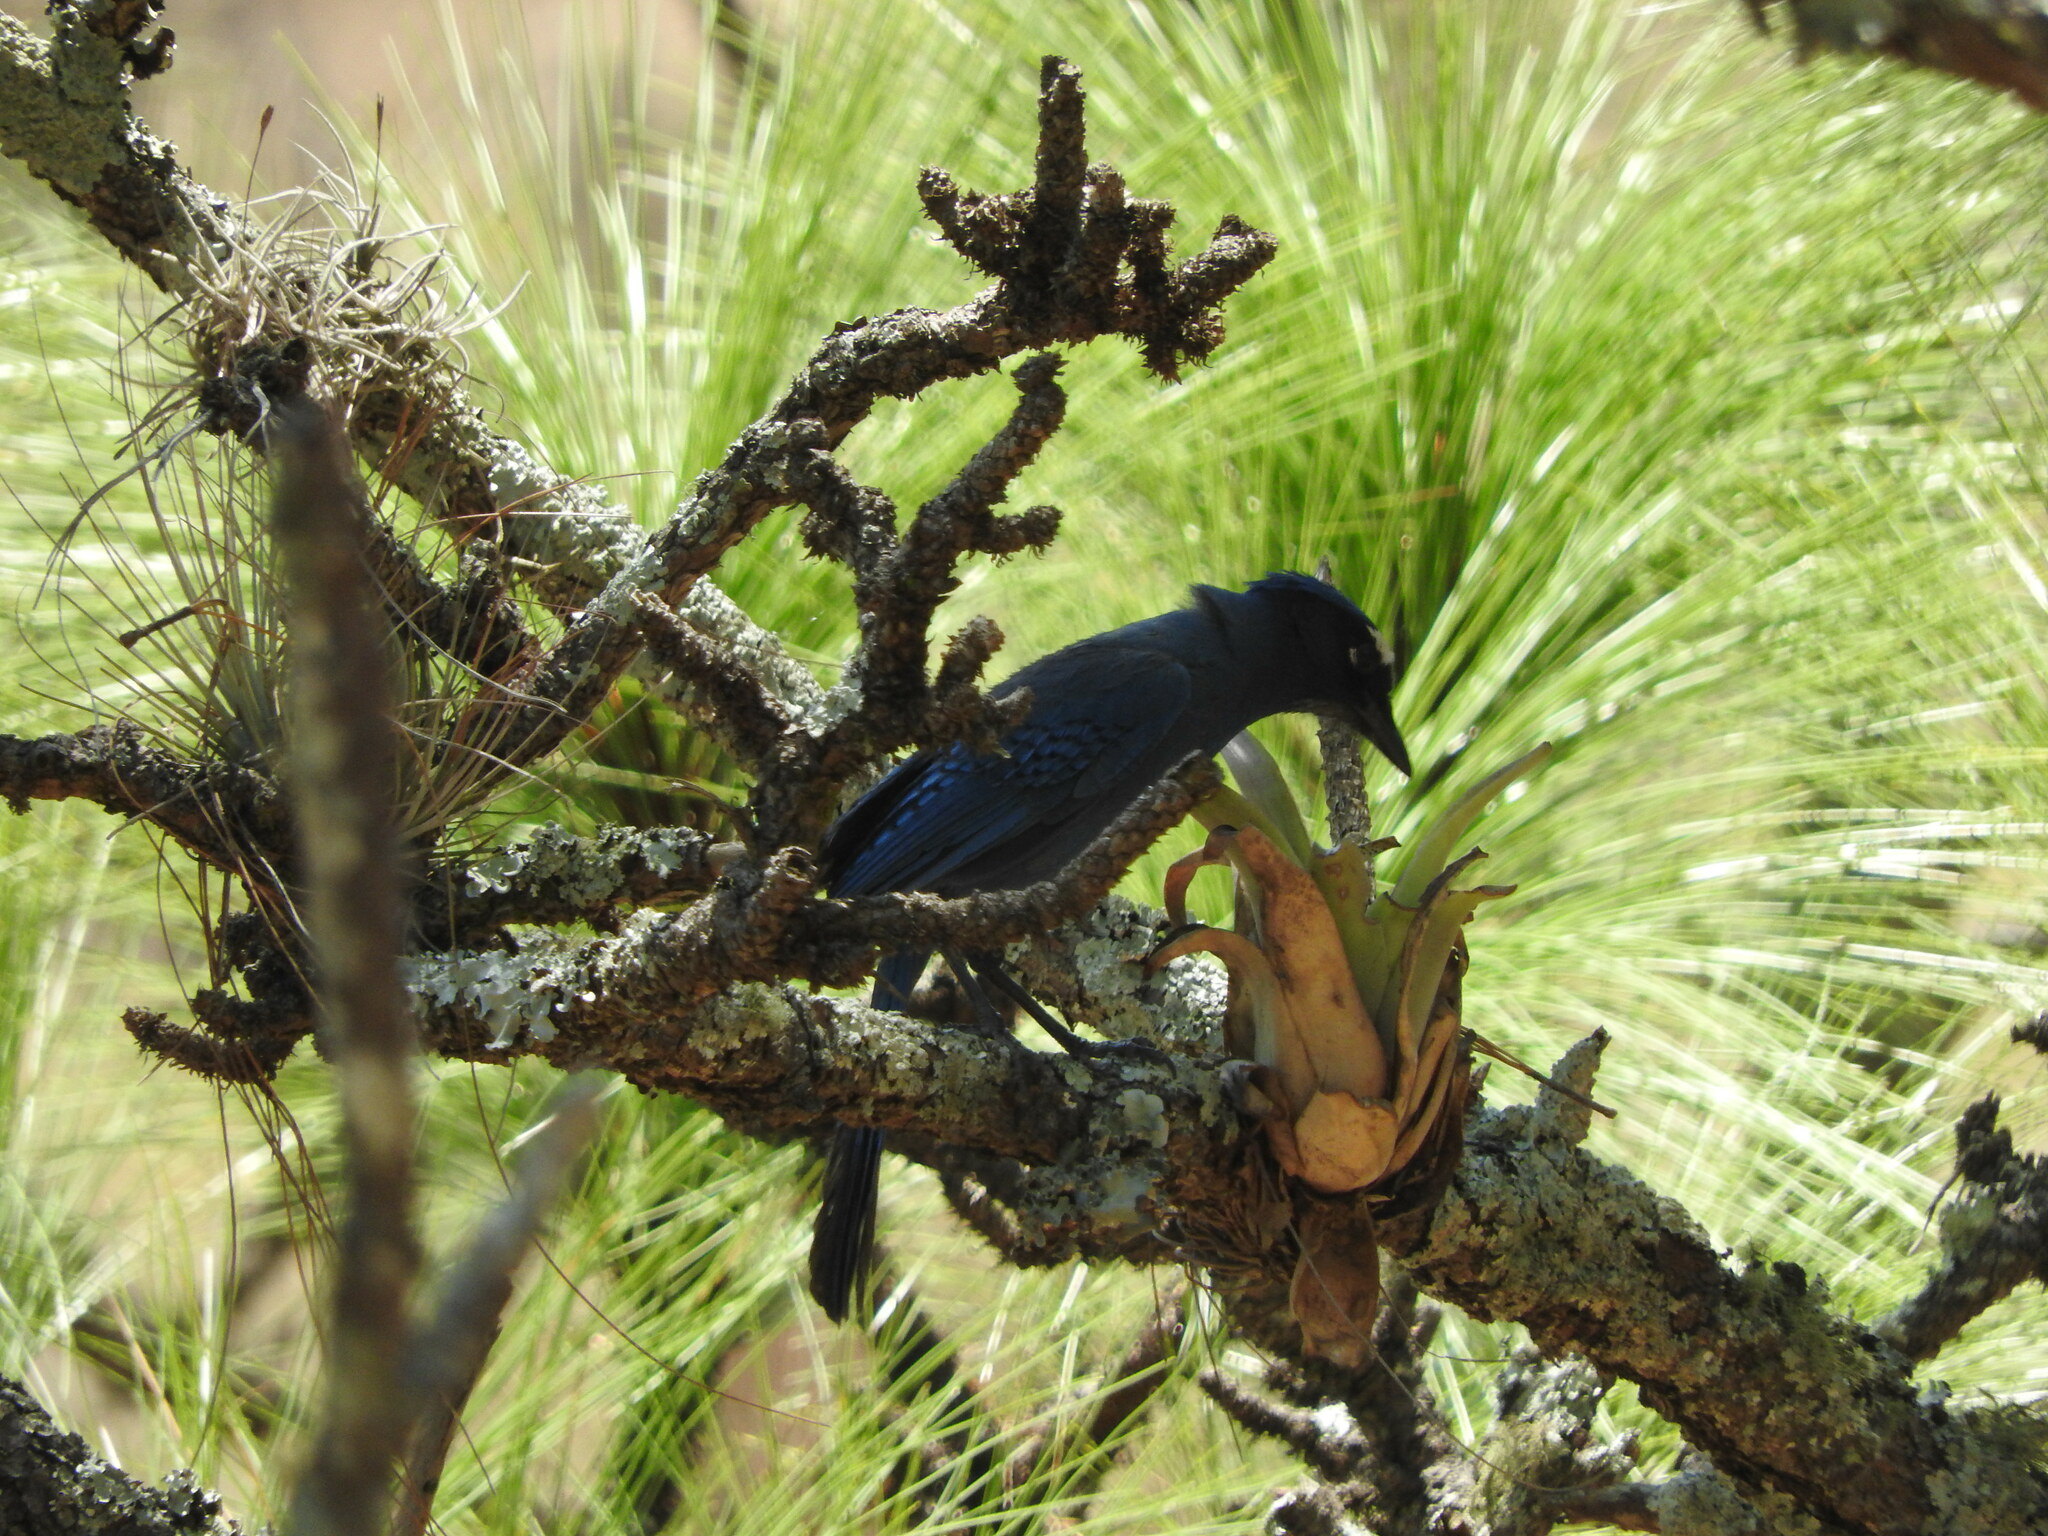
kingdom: Animalia
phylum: Chordata
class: Aves
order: Passeriformes
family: Corvidae
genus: Cyanocitta
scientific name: Cyanocitta stelleri
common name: Steller's jay
